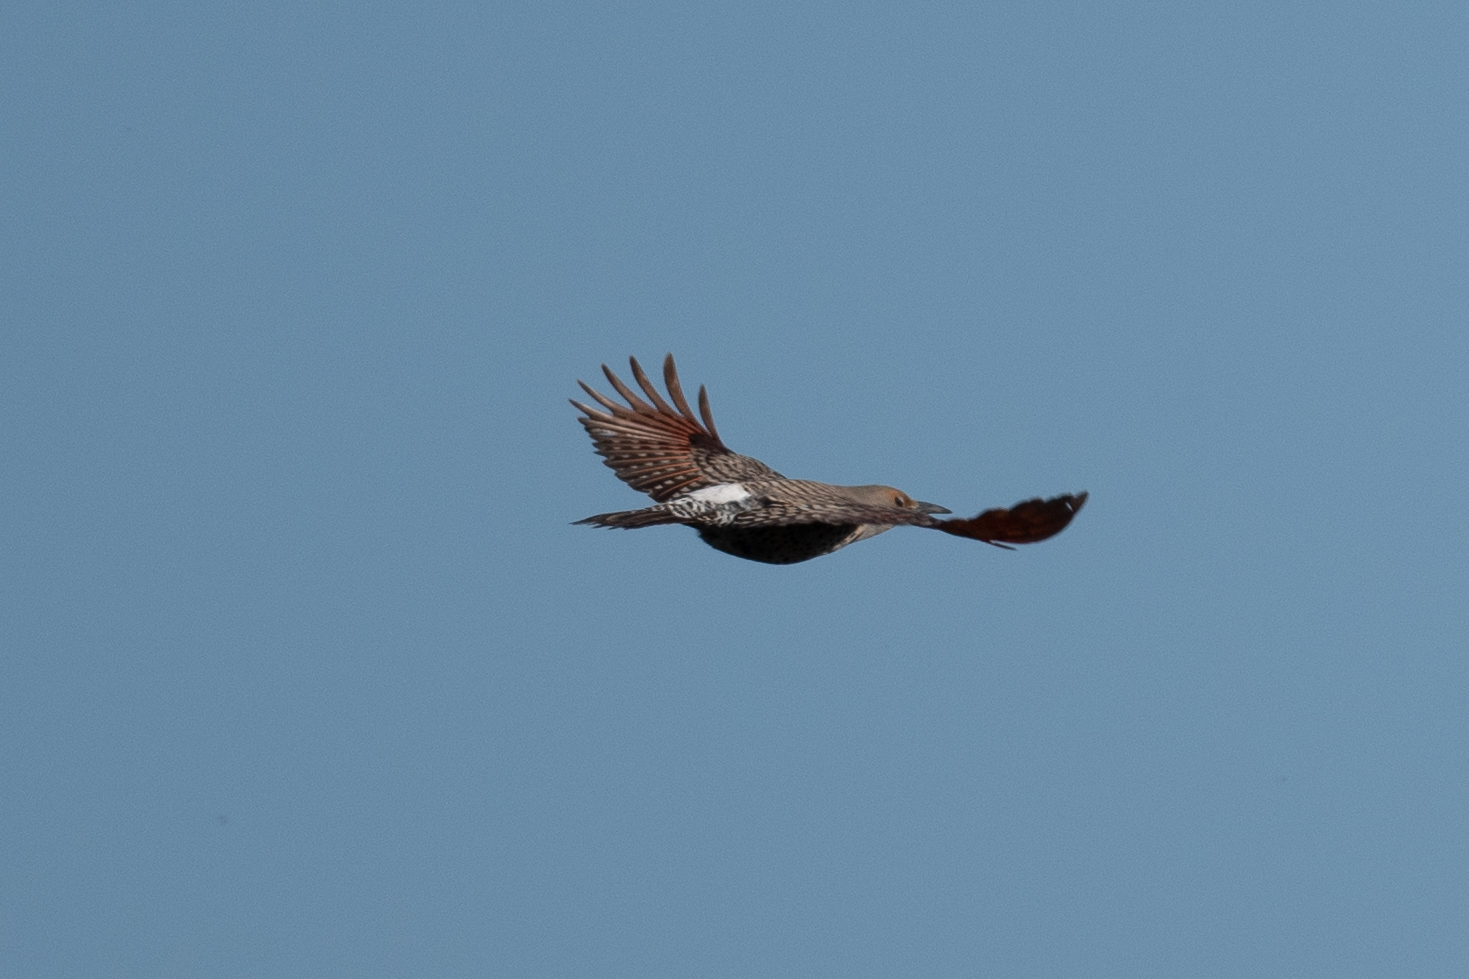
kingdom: Animalia
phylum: Chordata
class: Aves
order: Piciformes
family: Picidae
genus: Colaptes
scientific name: Colaptes auratus
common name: Northern flicker
